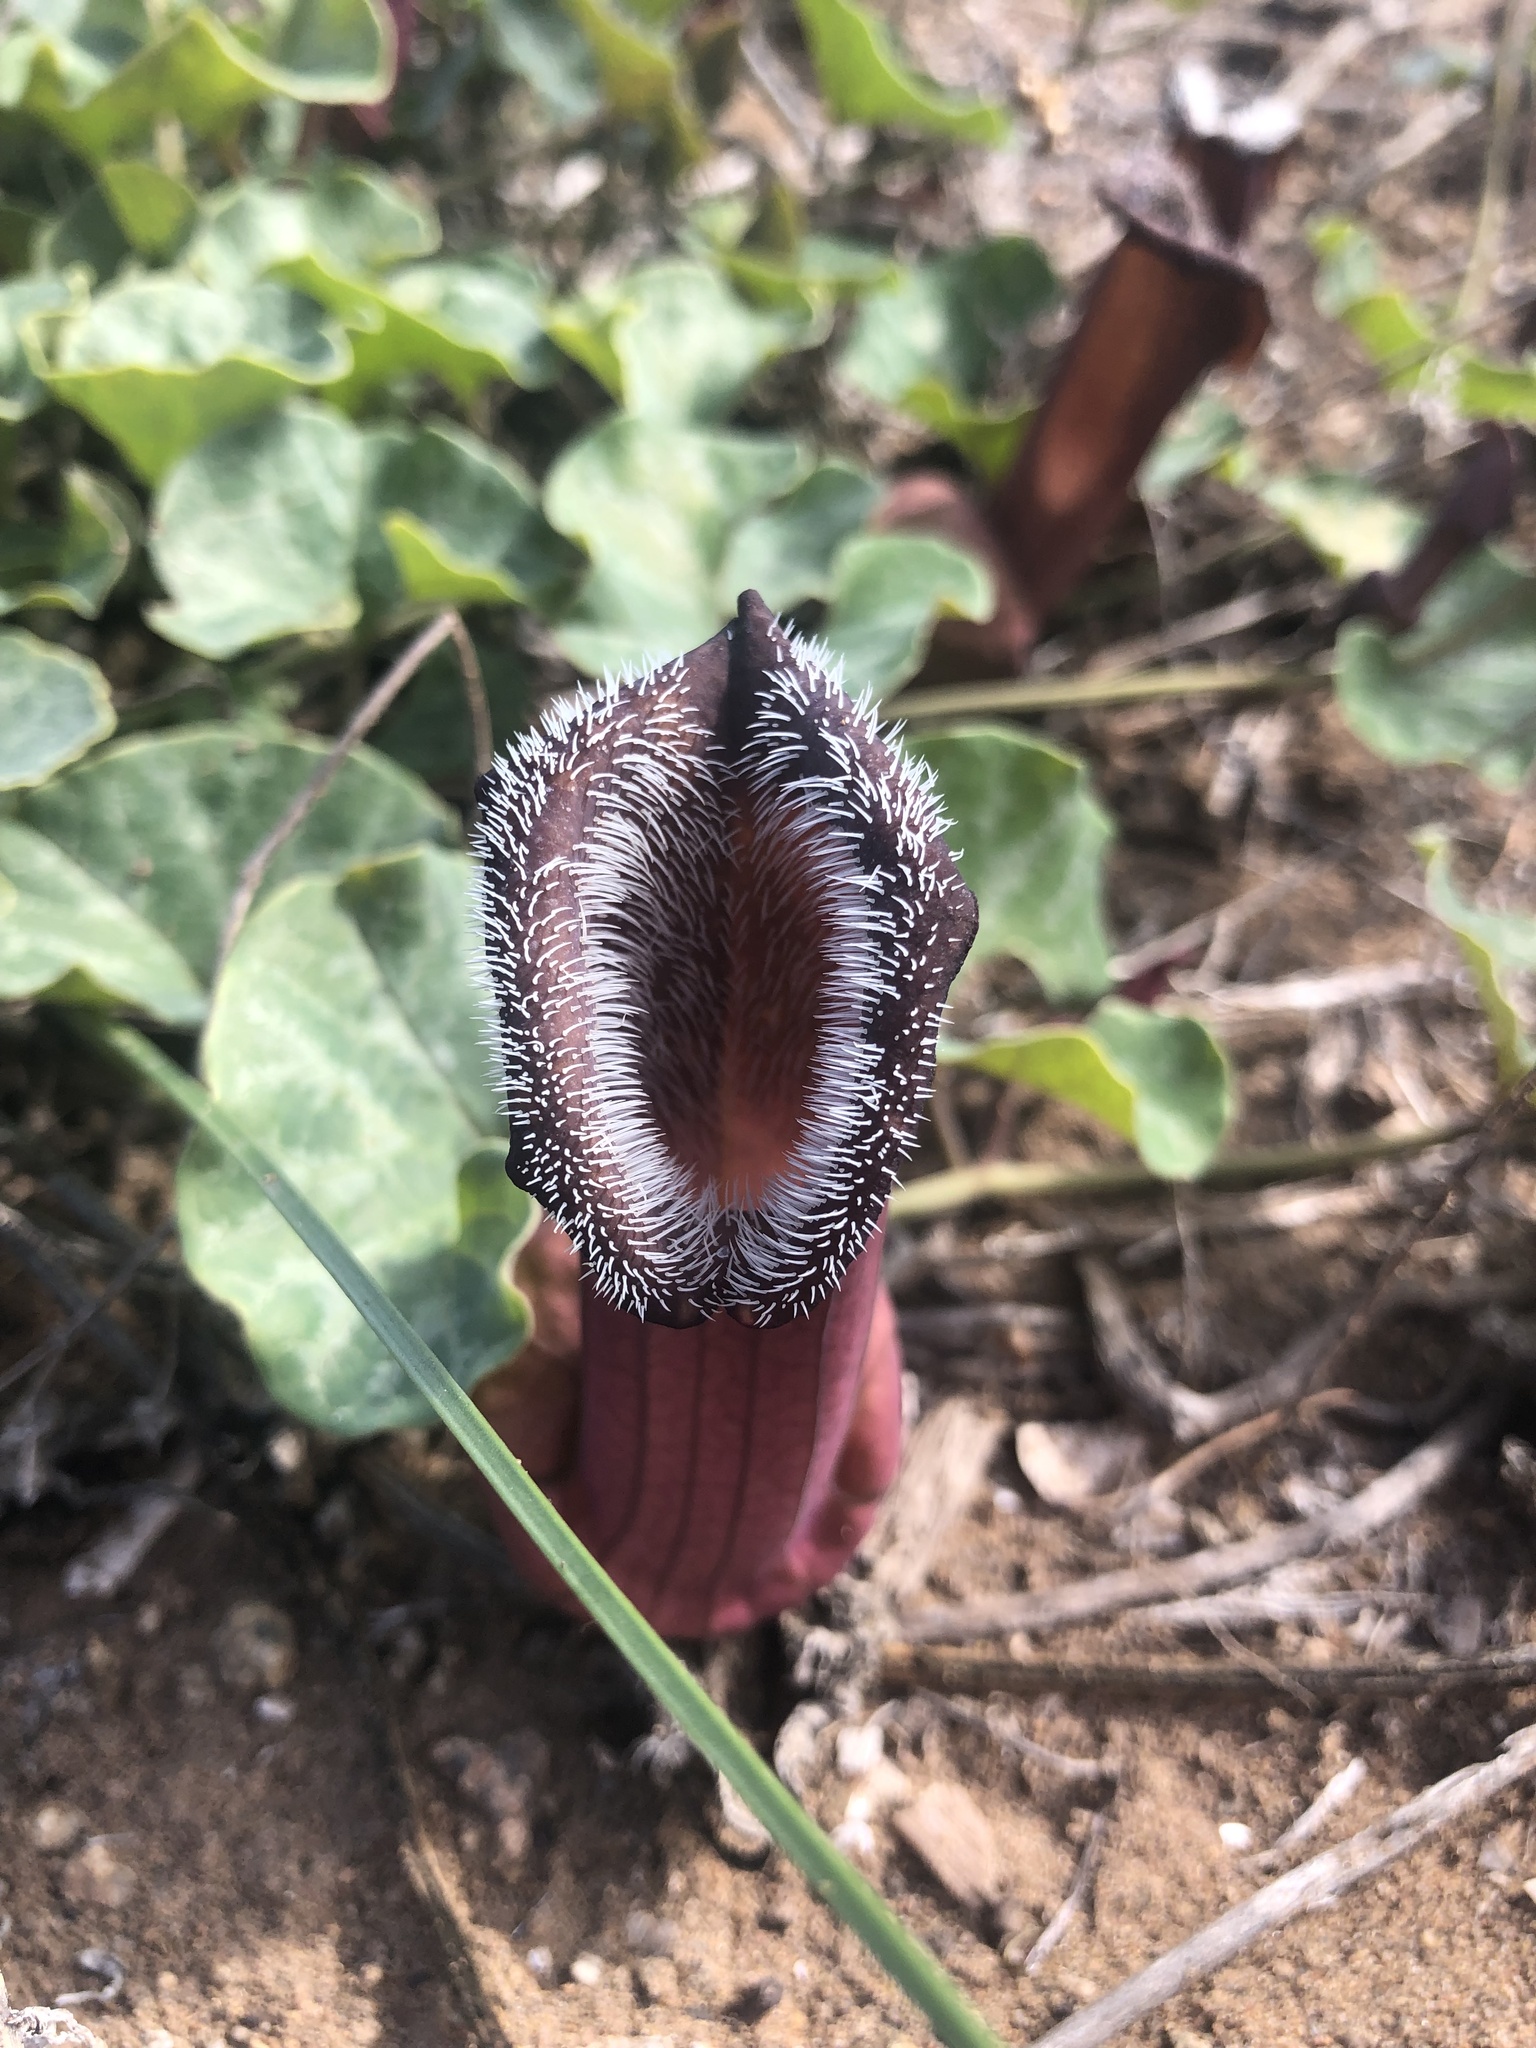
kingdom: Plantae
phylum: Tracheophyta
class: Magnoliopsida
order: Piperales
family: Aristolochiaceae
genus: Aristolochia
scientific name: Aristolochia chilensis
